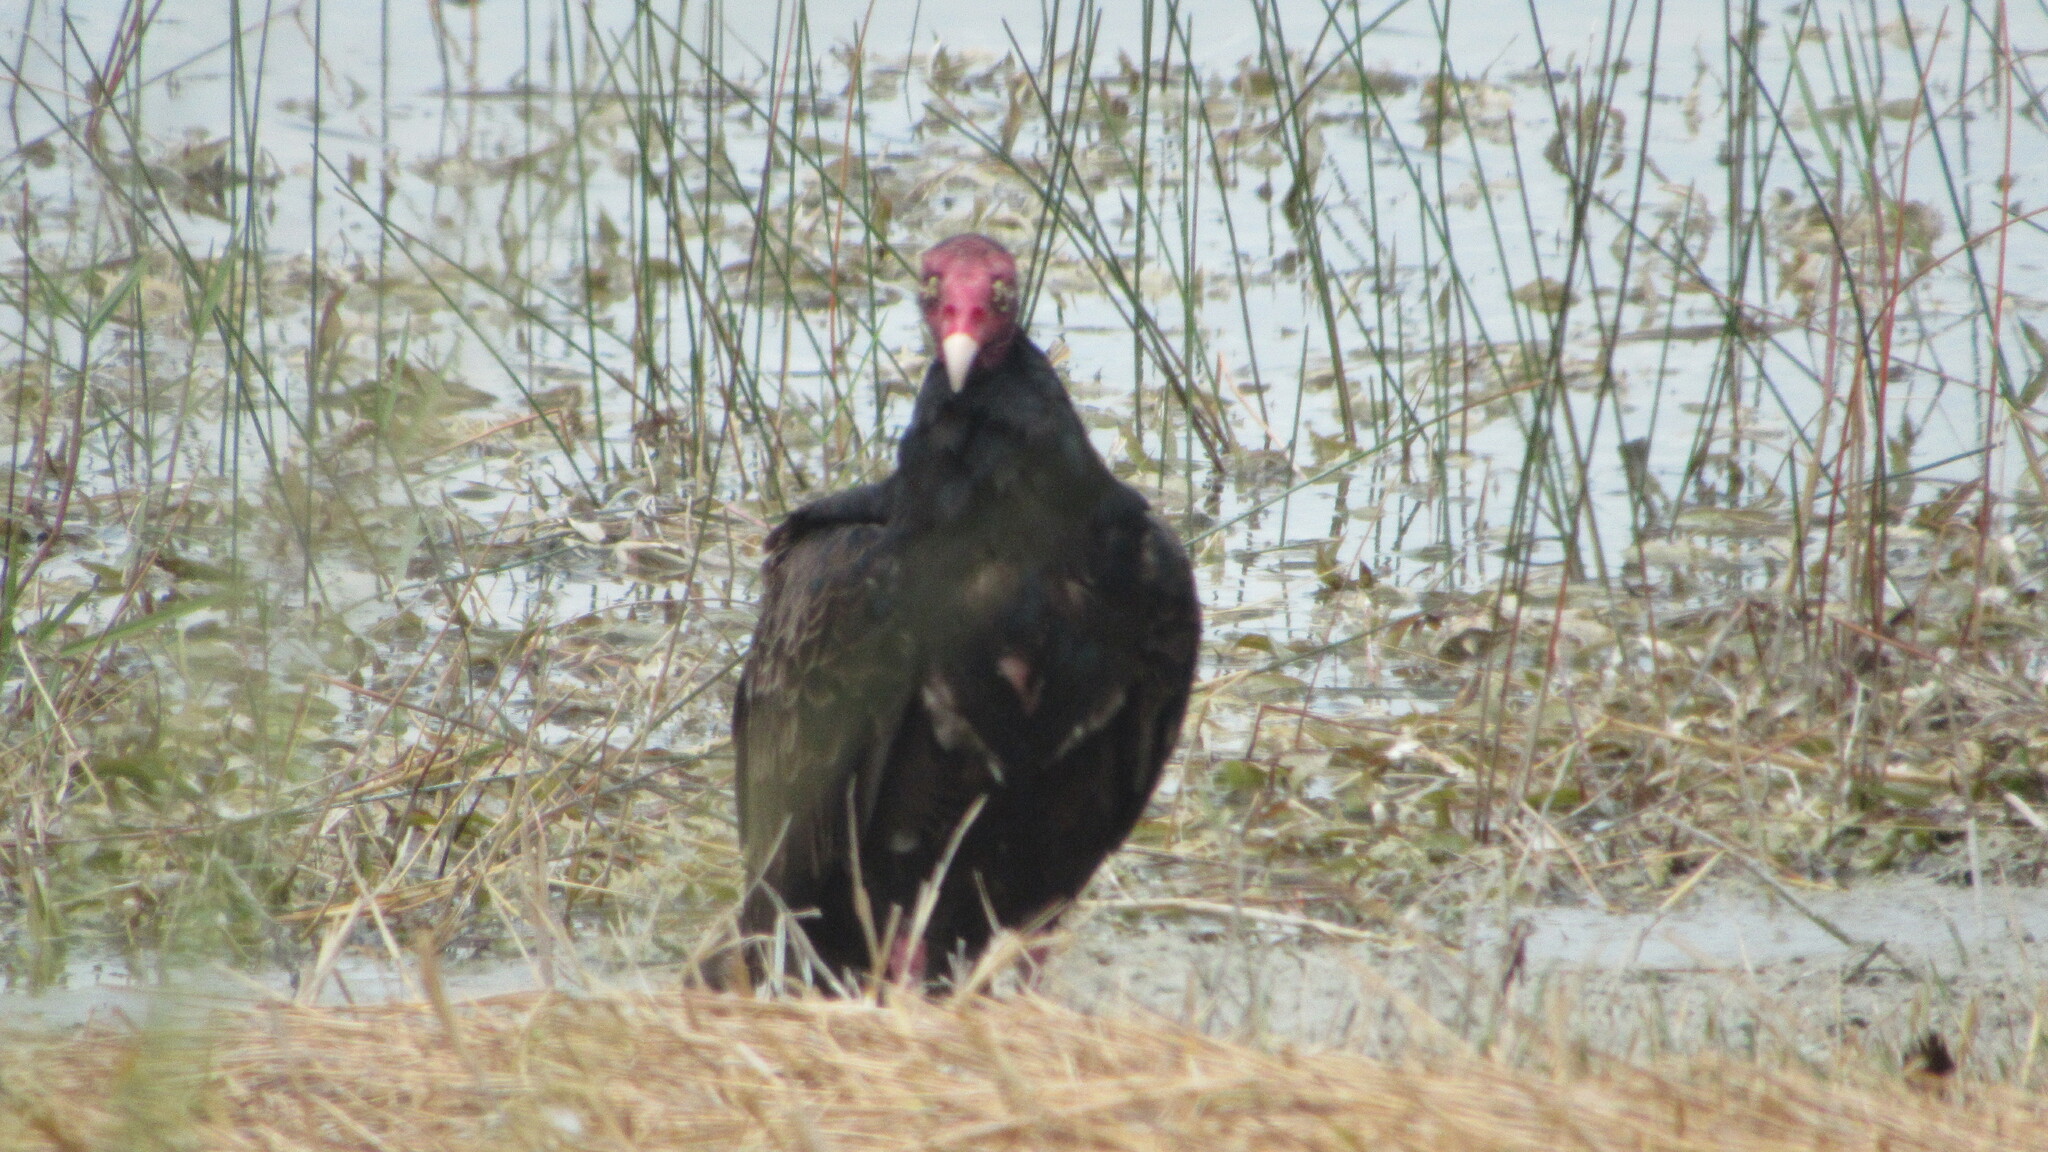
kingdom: Animalia
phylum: Chordata
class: Aves
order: Accipitriformes
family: Cathartidae
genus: Cathartes
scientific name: Cathartes aura
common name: Turkey vulture
